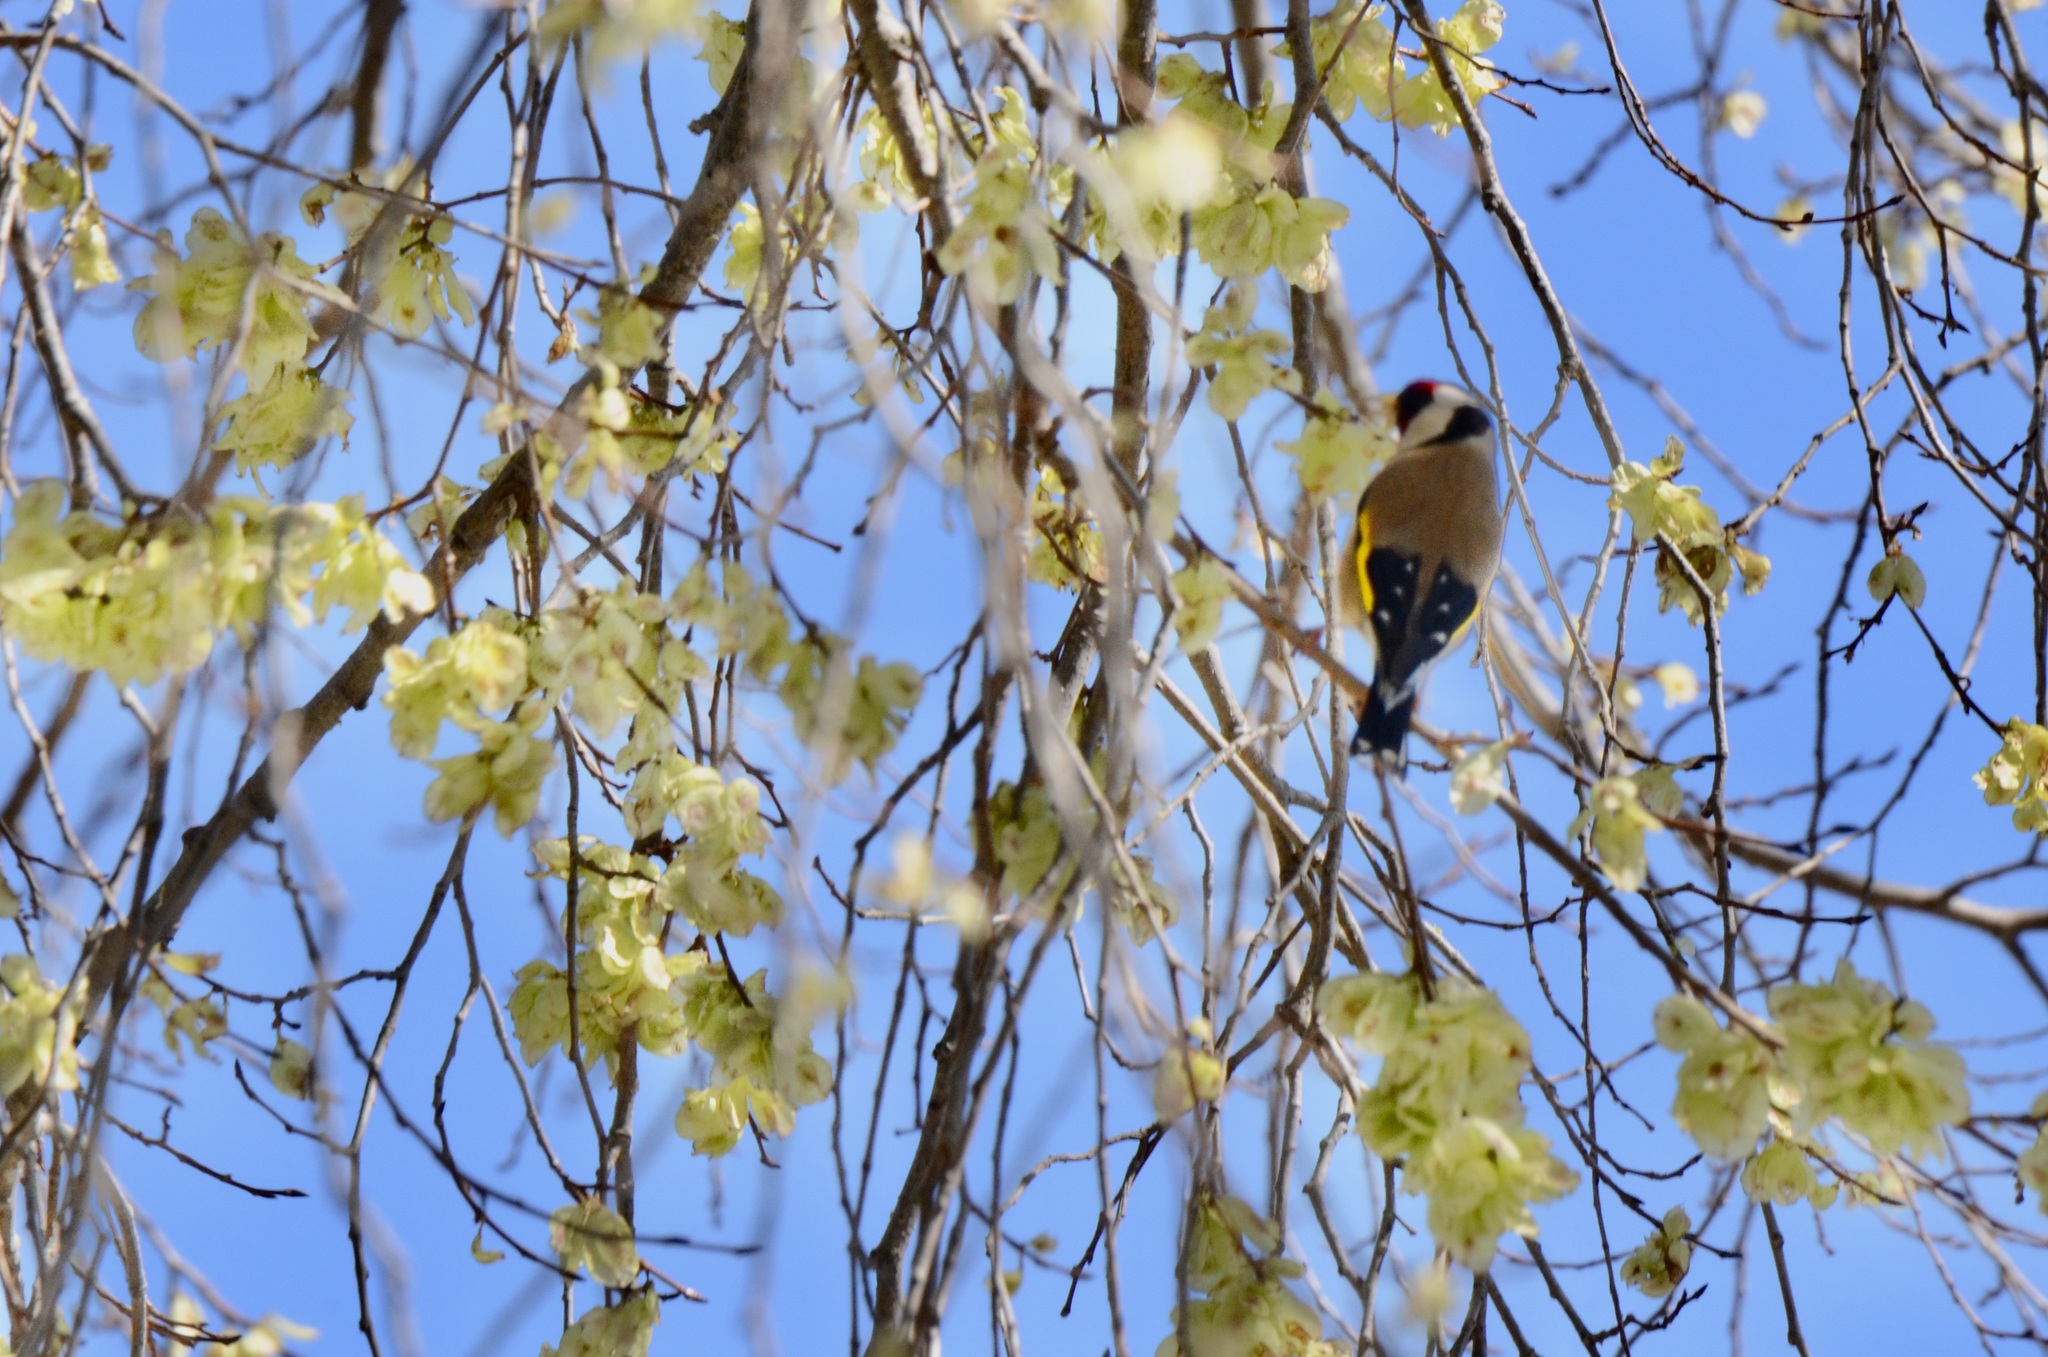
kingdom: Animalia
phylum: Chordata
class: Aves
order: Passeriformes
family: Fringillidae
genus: Carduelis
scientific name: Carduelis carduelis
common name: European goldfinch
